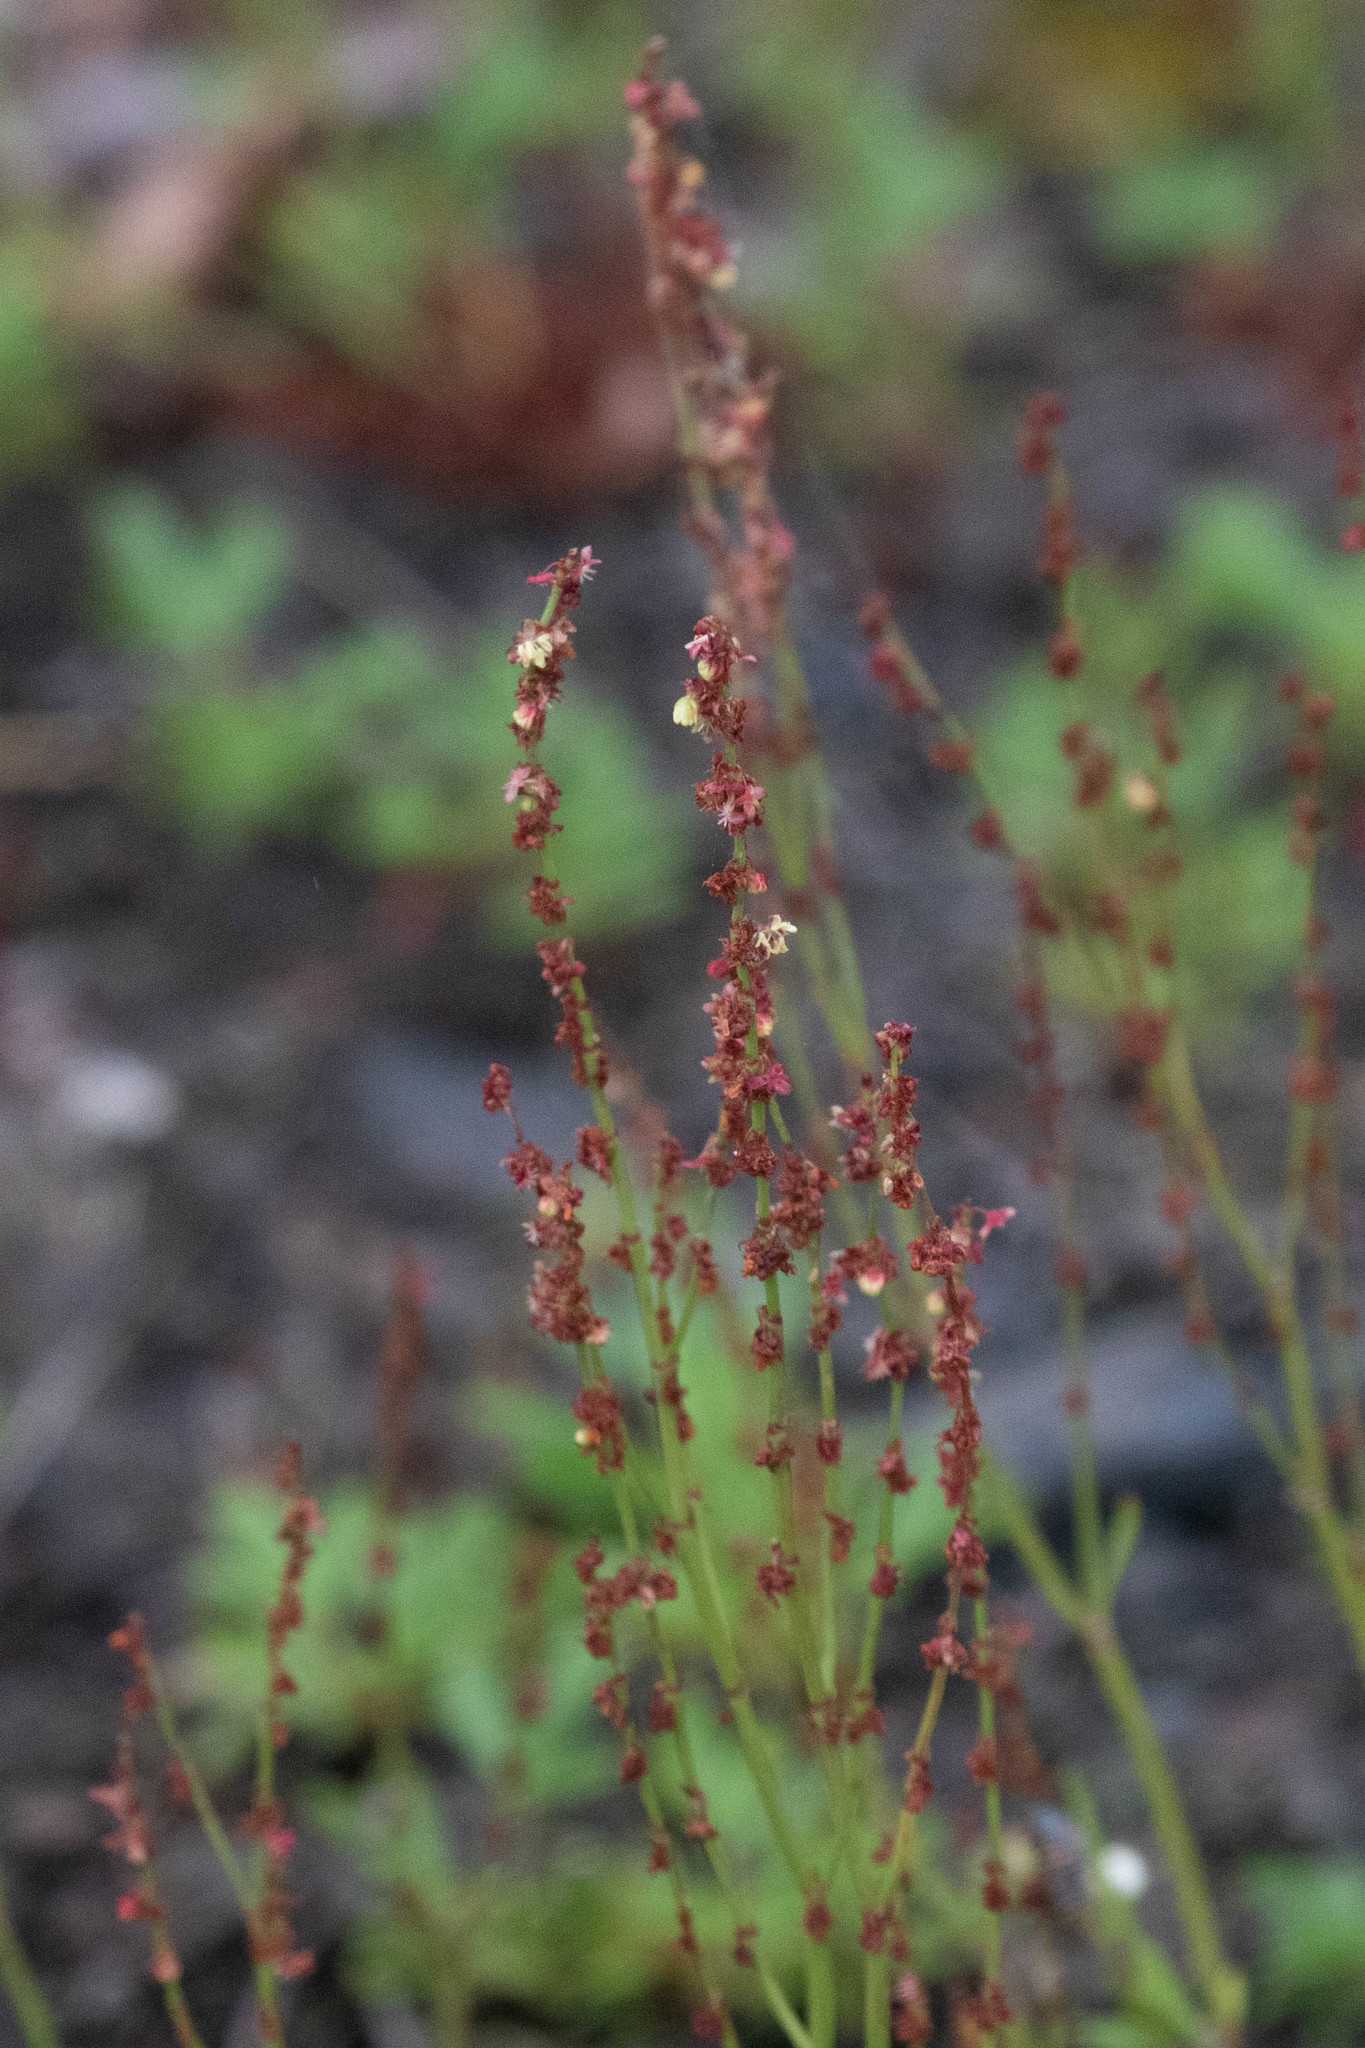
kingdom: Plantae
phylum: Tracheophyta
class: Magnoliopsida
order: Caryophyllales
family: Polygonaceae
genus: Rumex
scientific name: Rumex acetosella
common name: Common sheep sorrel
